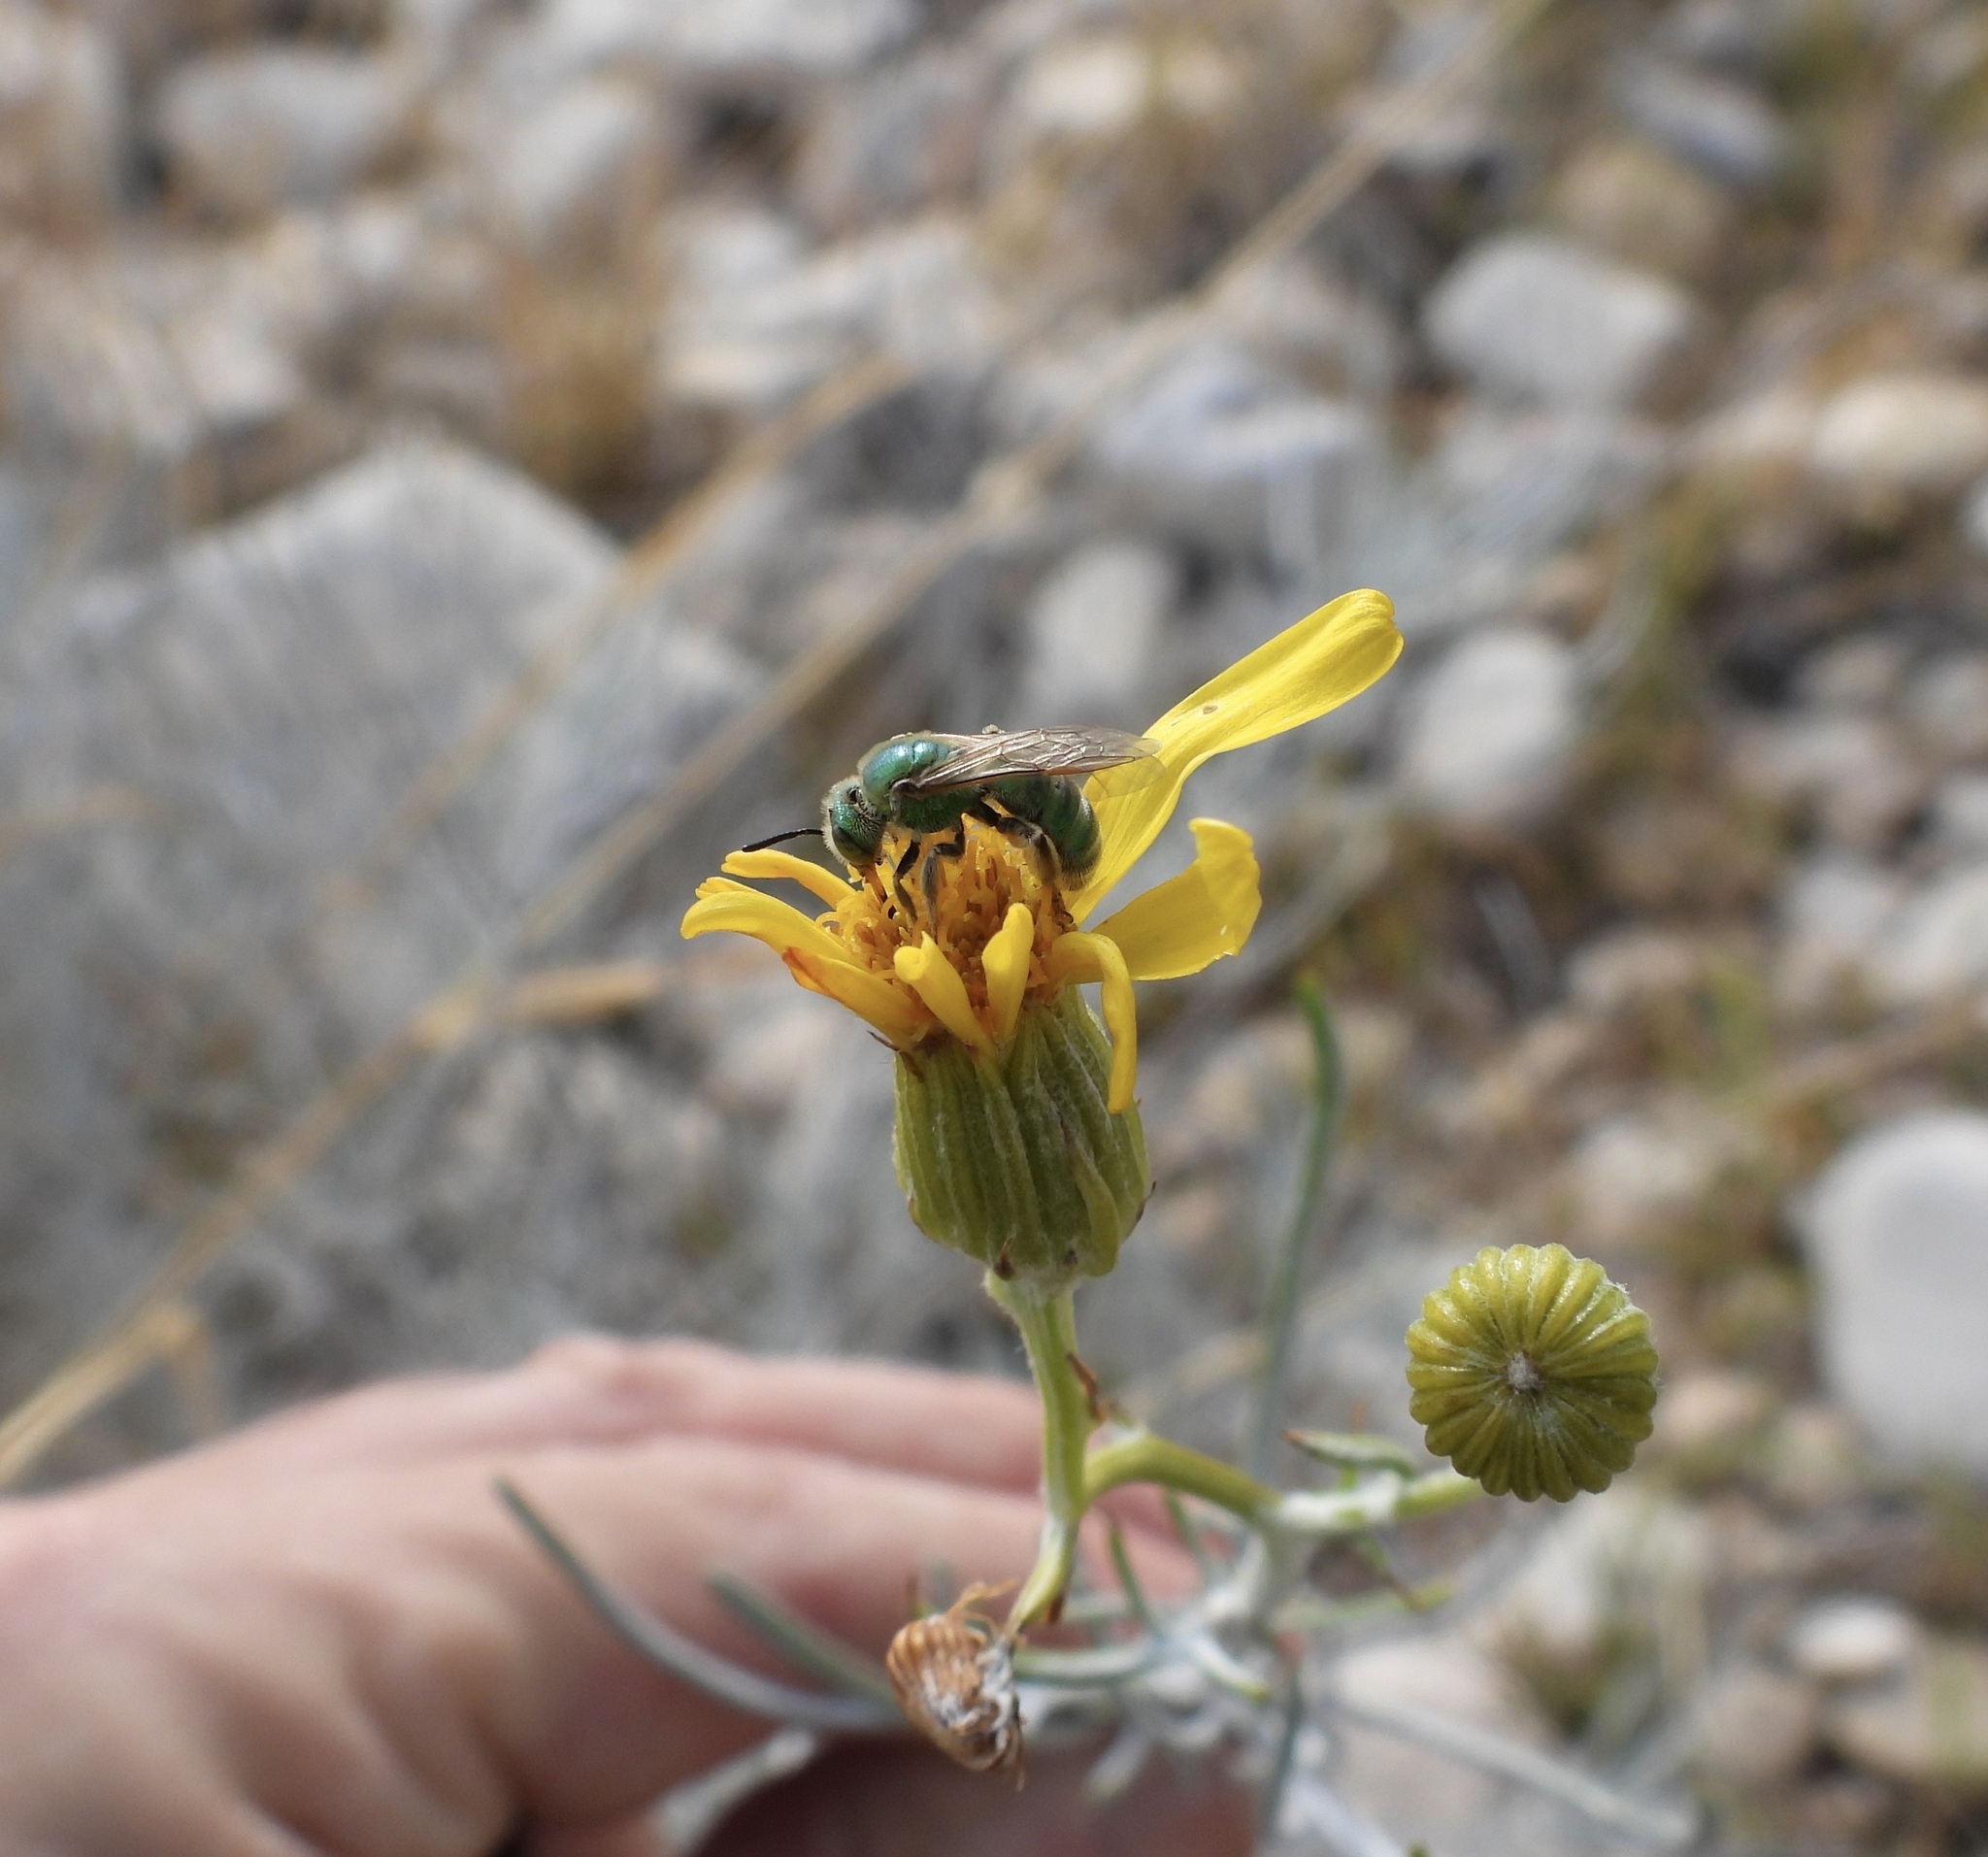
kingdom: Animalia
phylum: Arthropoda
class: Insecta
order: Hymenoptera
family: Halictidae
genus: Agapostemon
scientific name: Agapostemon
